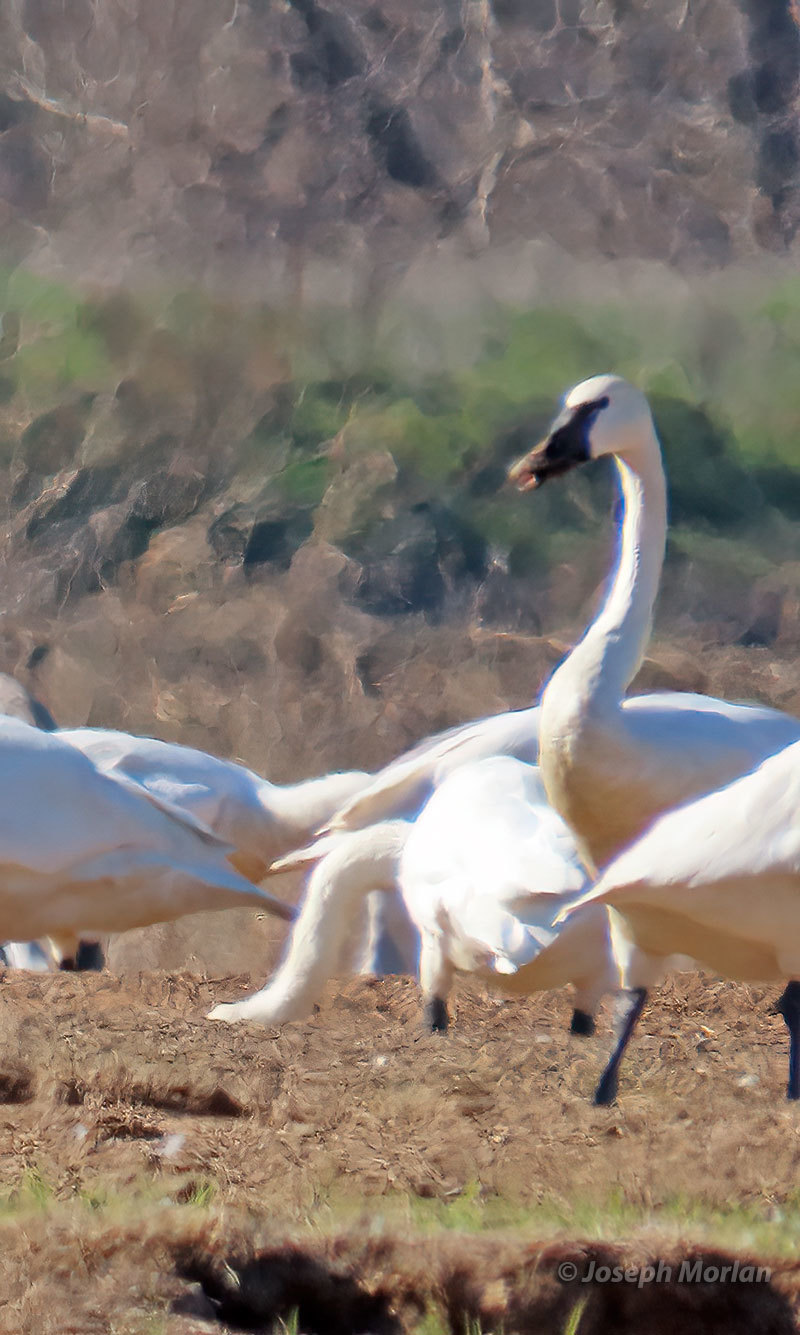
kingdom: Animalia
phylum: Chordata
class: Aves
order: Anseriformes
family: Anatidae
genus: Cygnus
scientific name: Cygnus buccinator
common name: Trumpeter swan
